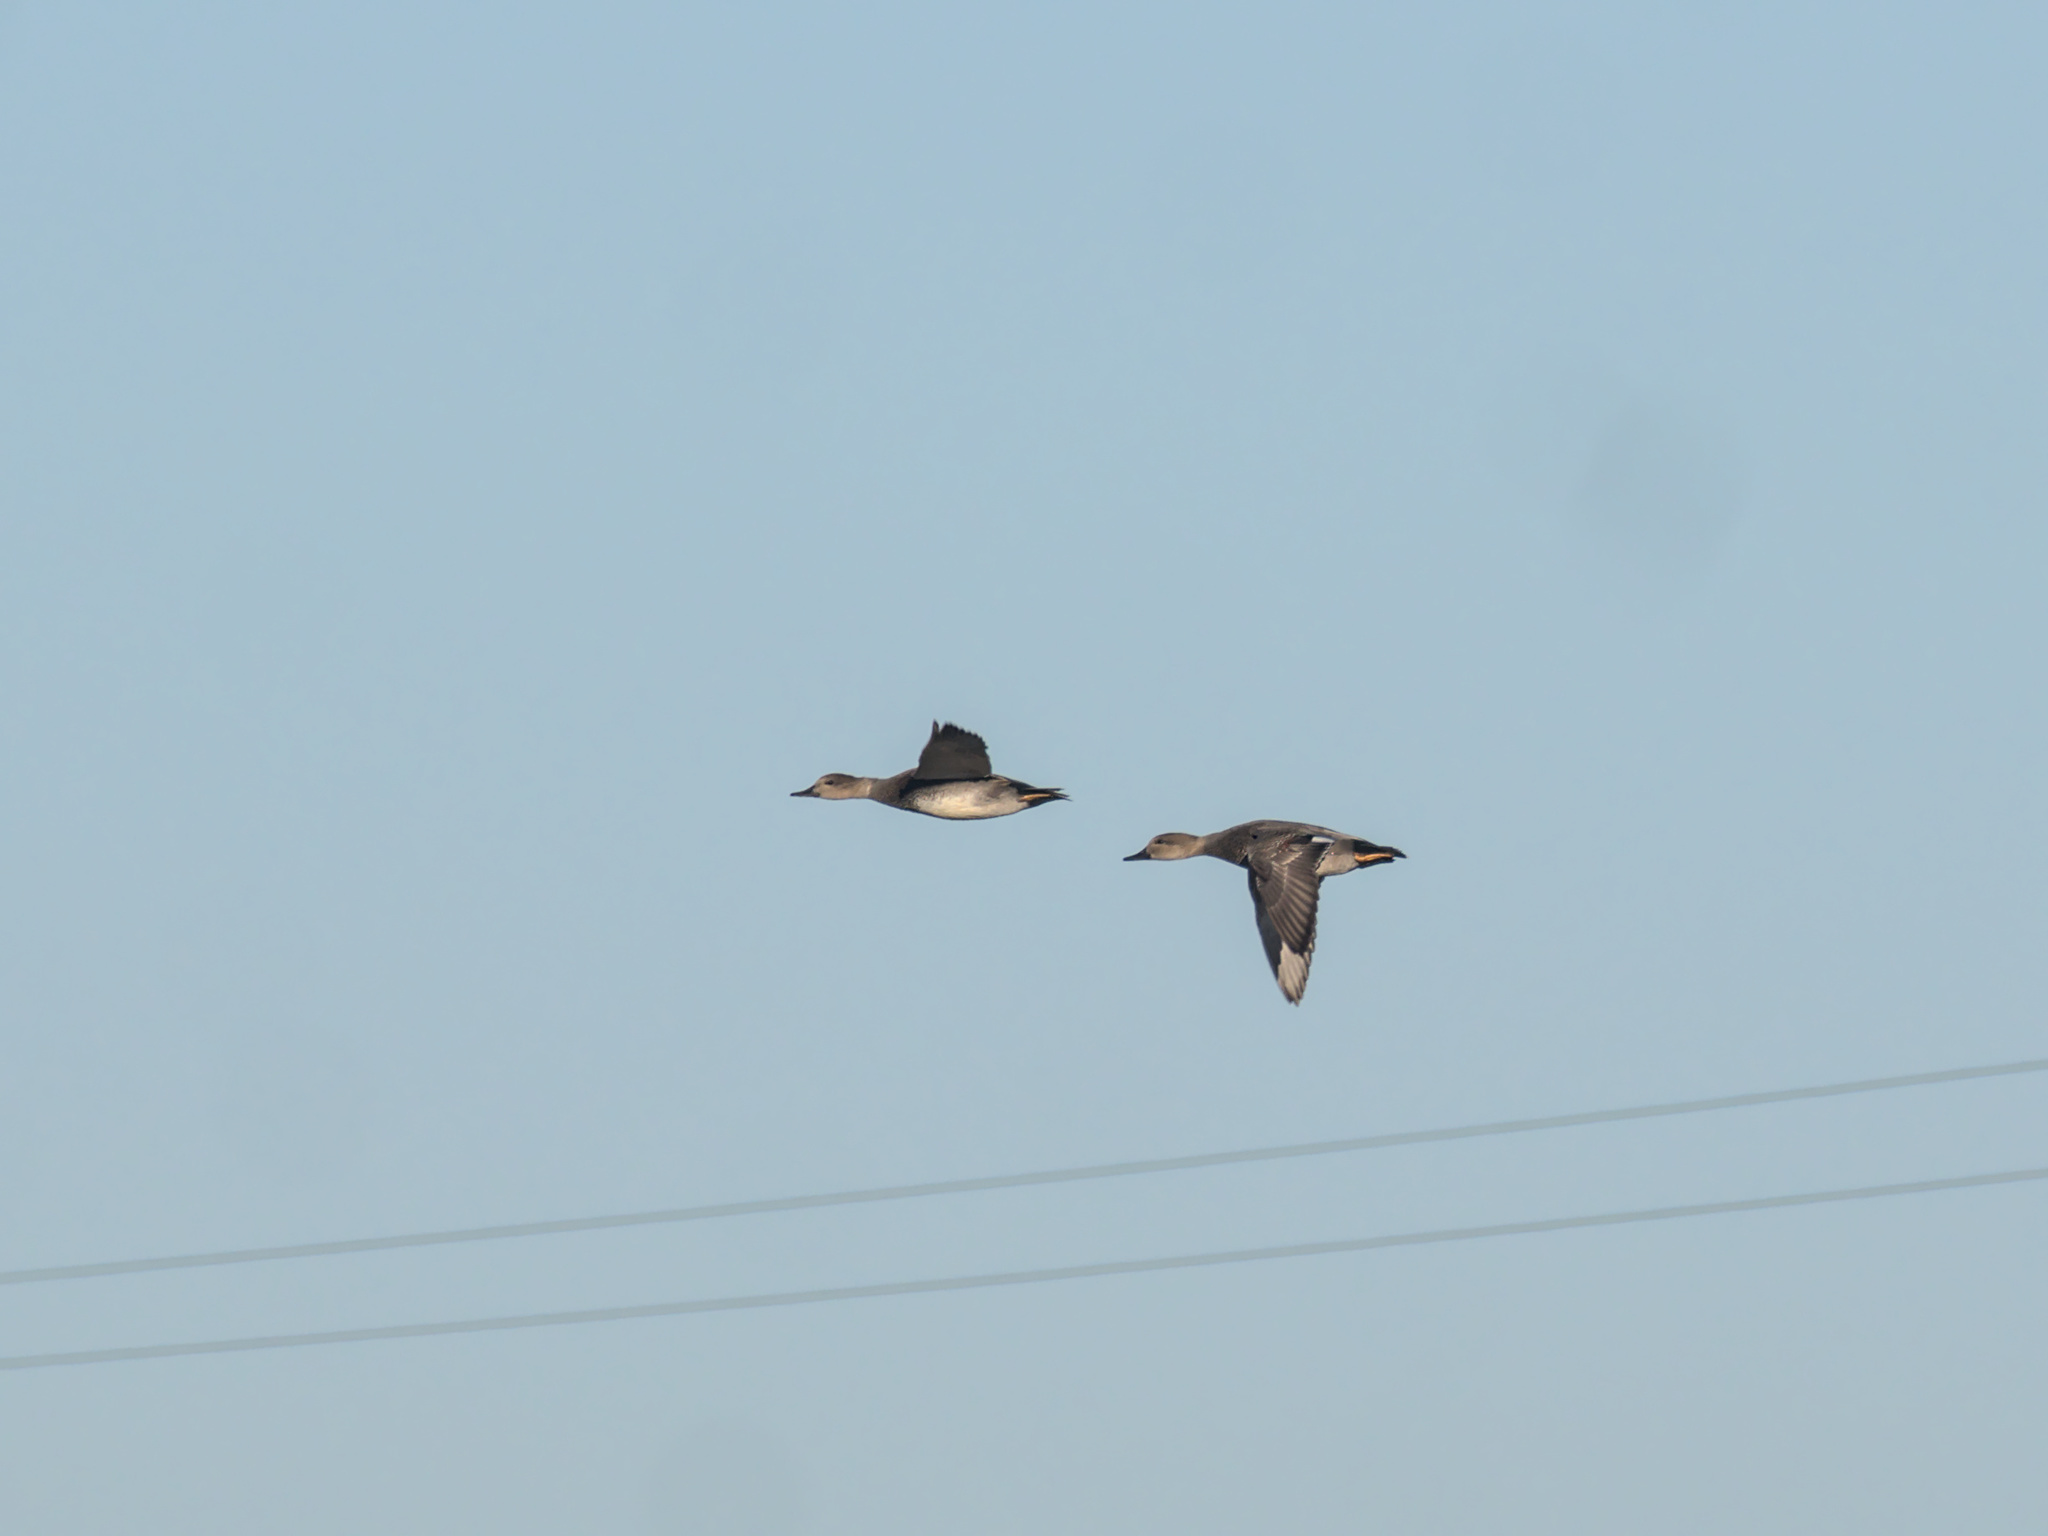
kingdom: Animalia
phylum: Chordata
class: Aves
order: Anseriformes
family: Anatidae
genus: Mareca
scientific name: Mareca strepera
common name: Gadwall
